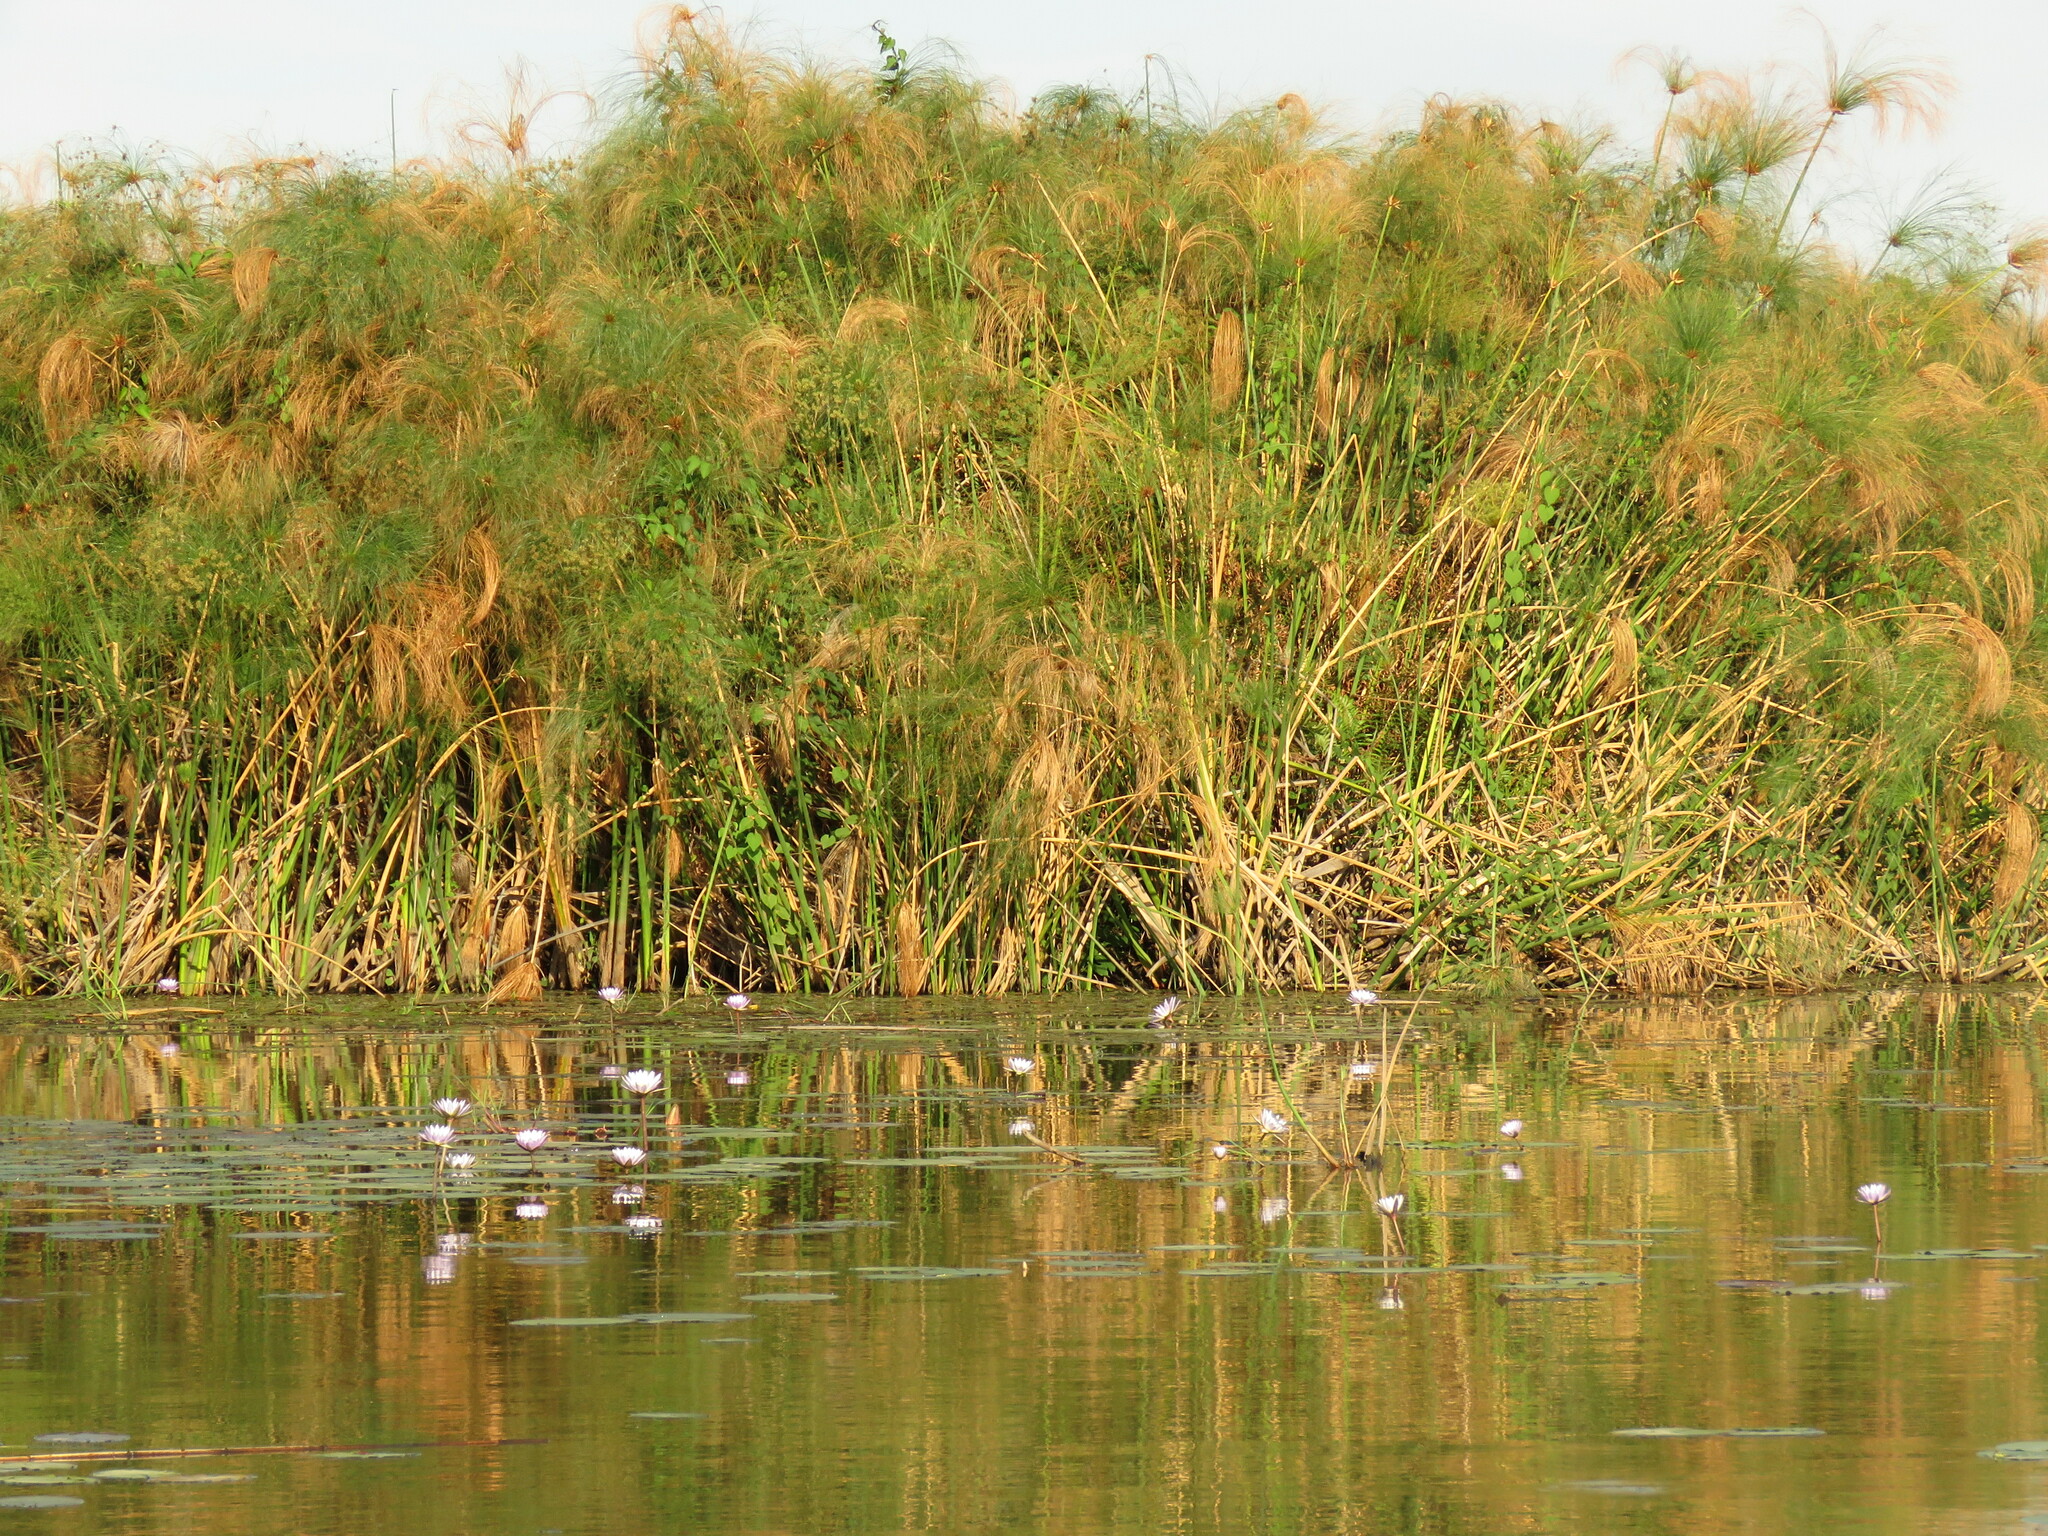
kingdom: Plantae
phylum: Tracheophyta
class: Liliopsida
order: Poales
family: Cyperaceae
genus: Cyperus
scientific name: Cyperus papyrus
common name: Papyrus
